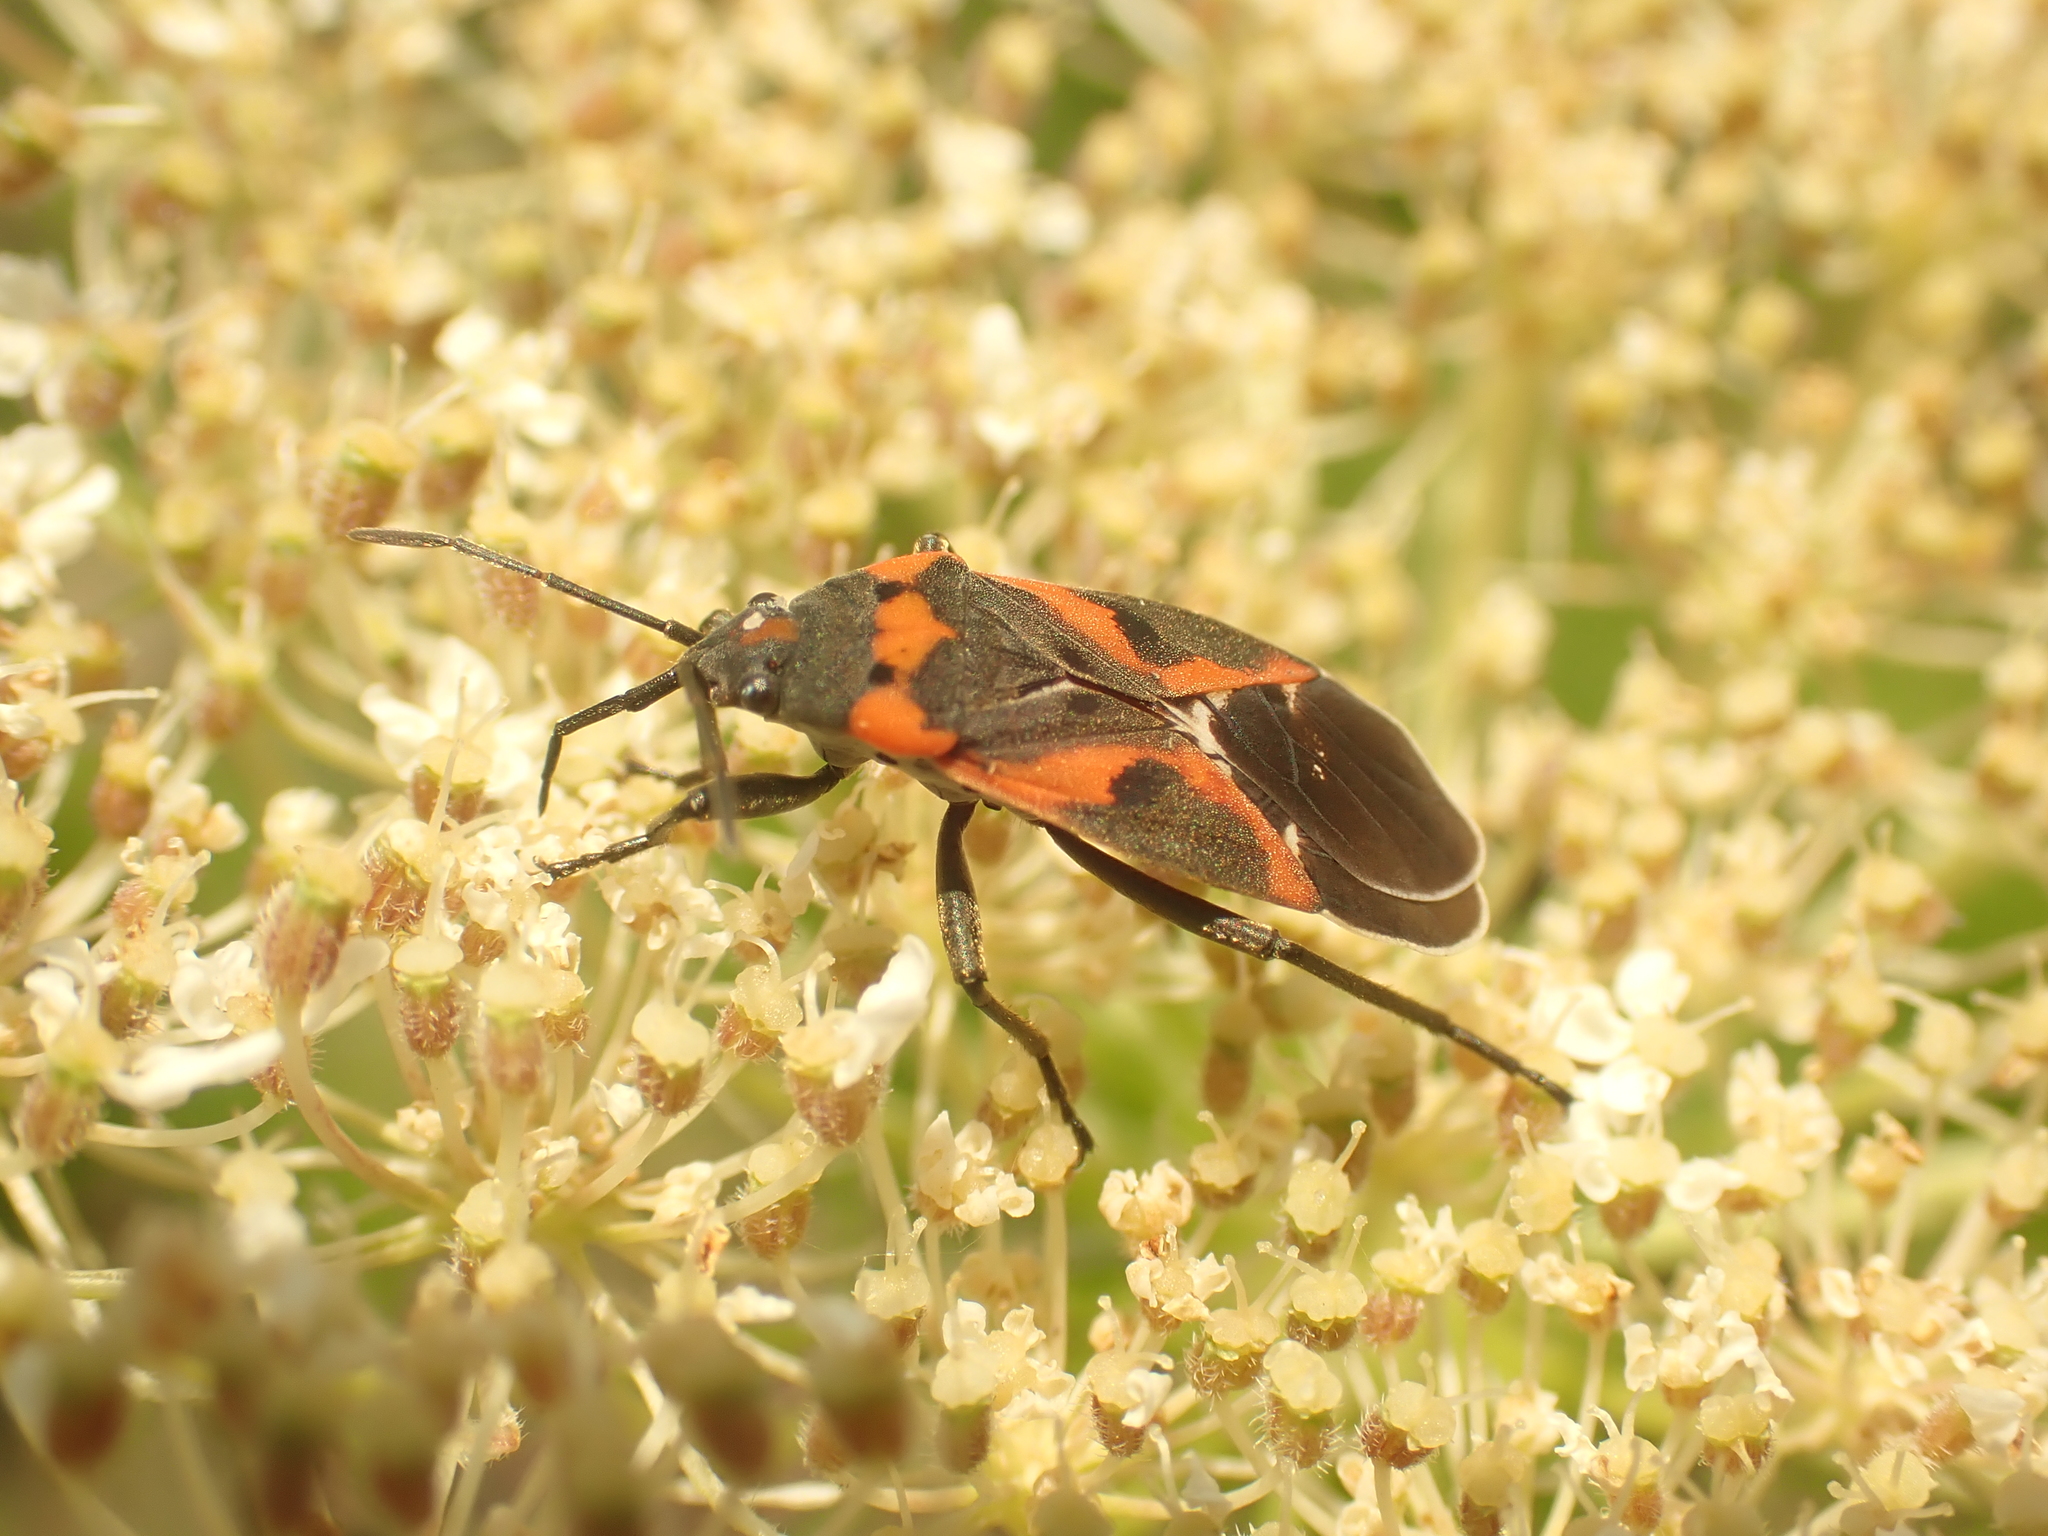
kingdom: Animalia
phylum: Arthropoda
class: Insecta
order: Hemiptera
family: Lygaeidae
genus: Lygaeus
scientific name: Lygaeus kalmii
